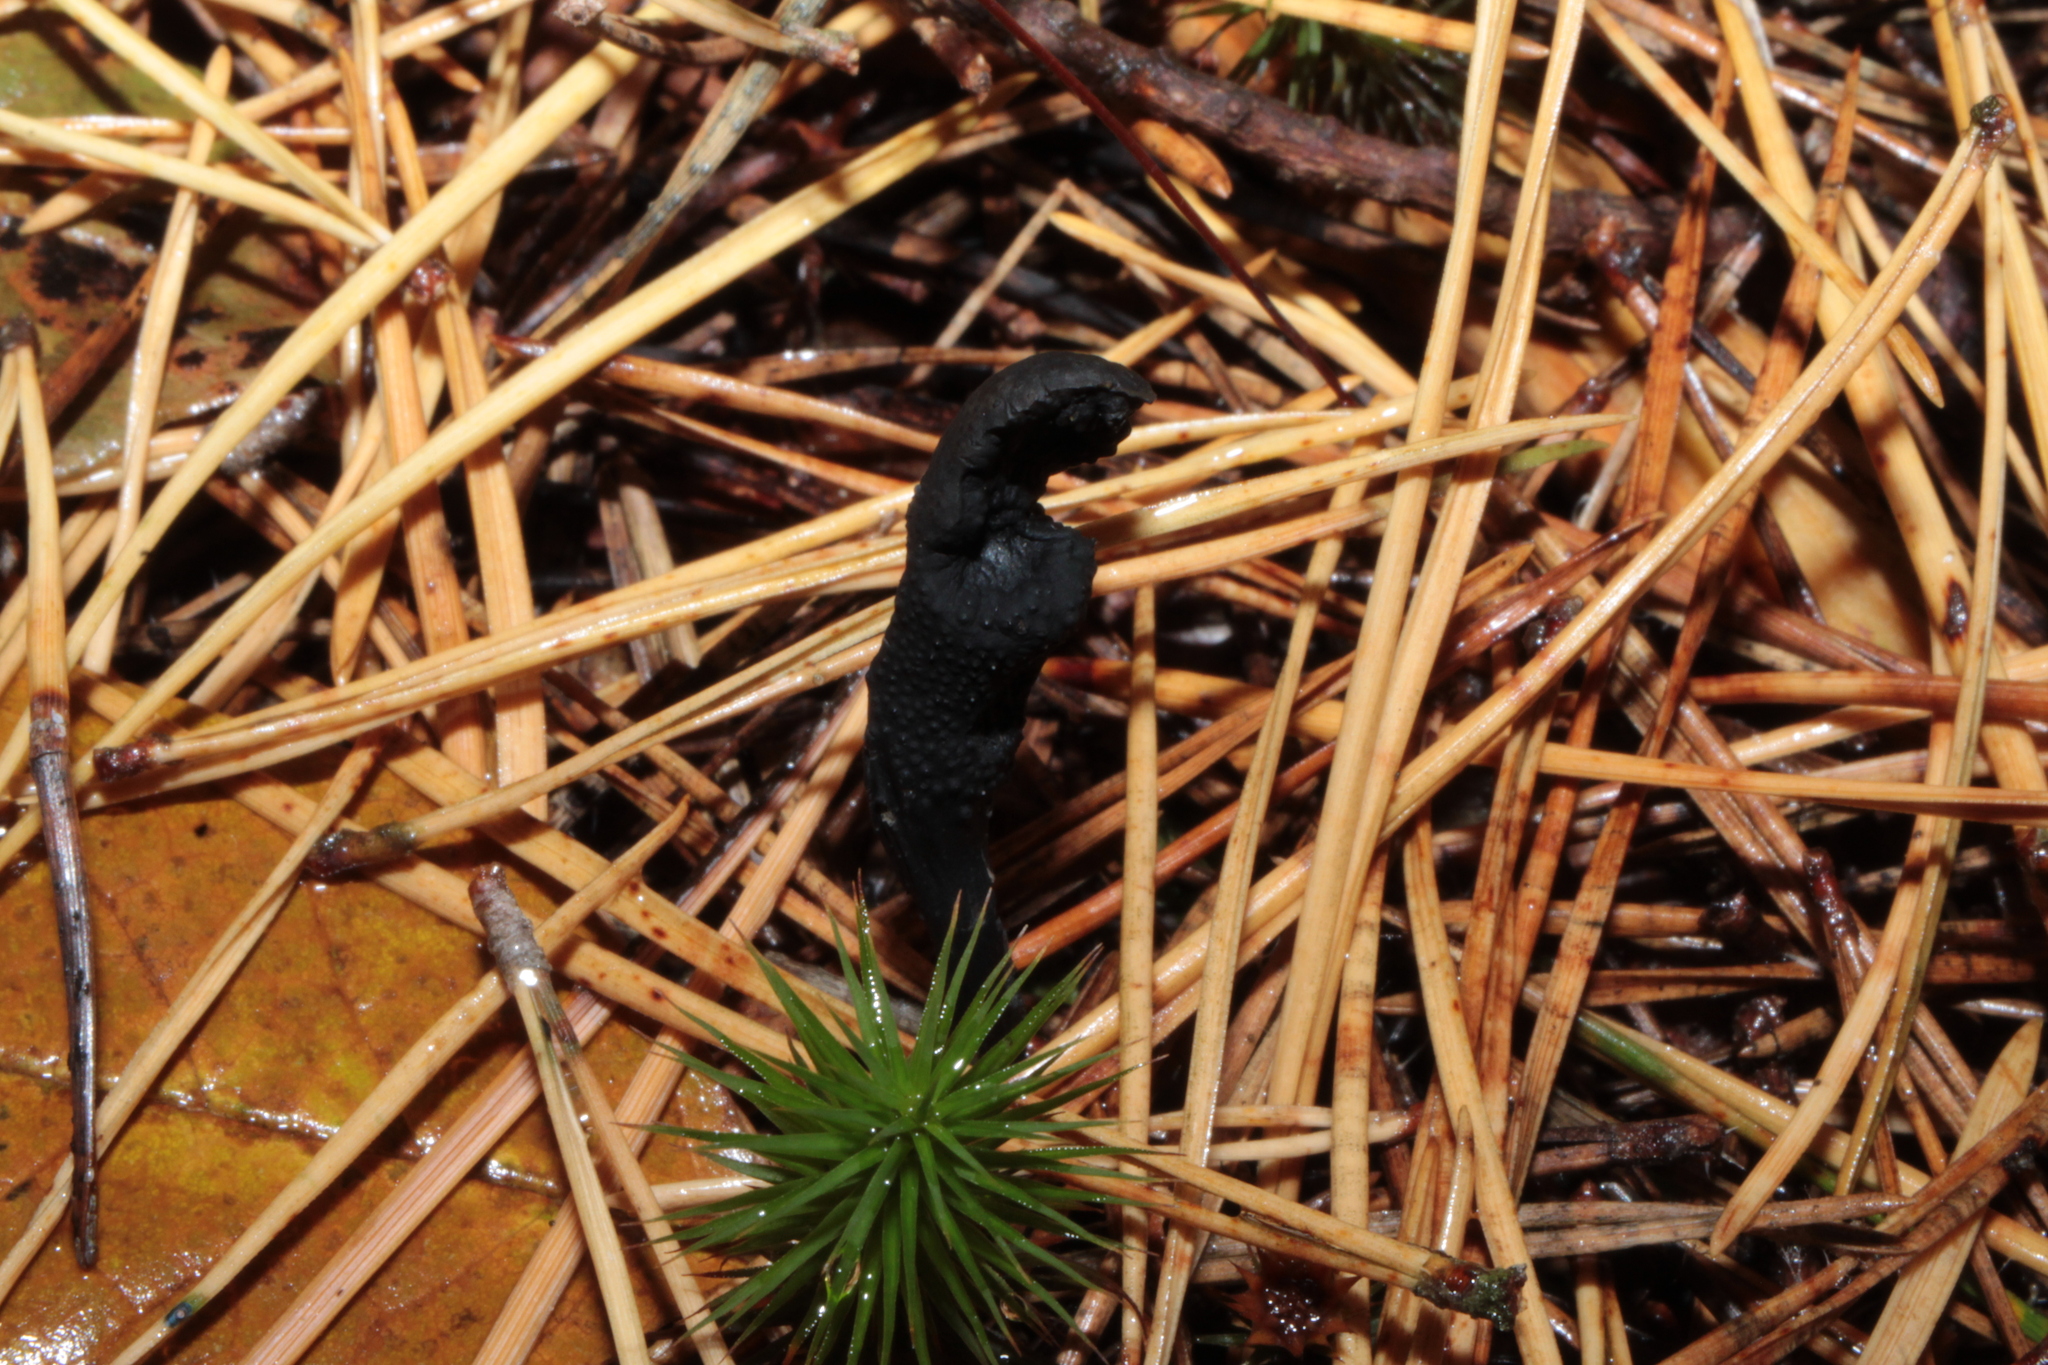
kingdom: Fungi
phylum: Ascomycota
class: Sordariomycetes
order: Hypocreales
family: Ophiocordycipitaceae
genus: Tolypocladium
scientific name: Tolypocladium ophioglossoides
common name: Snaketongue truffleclub
